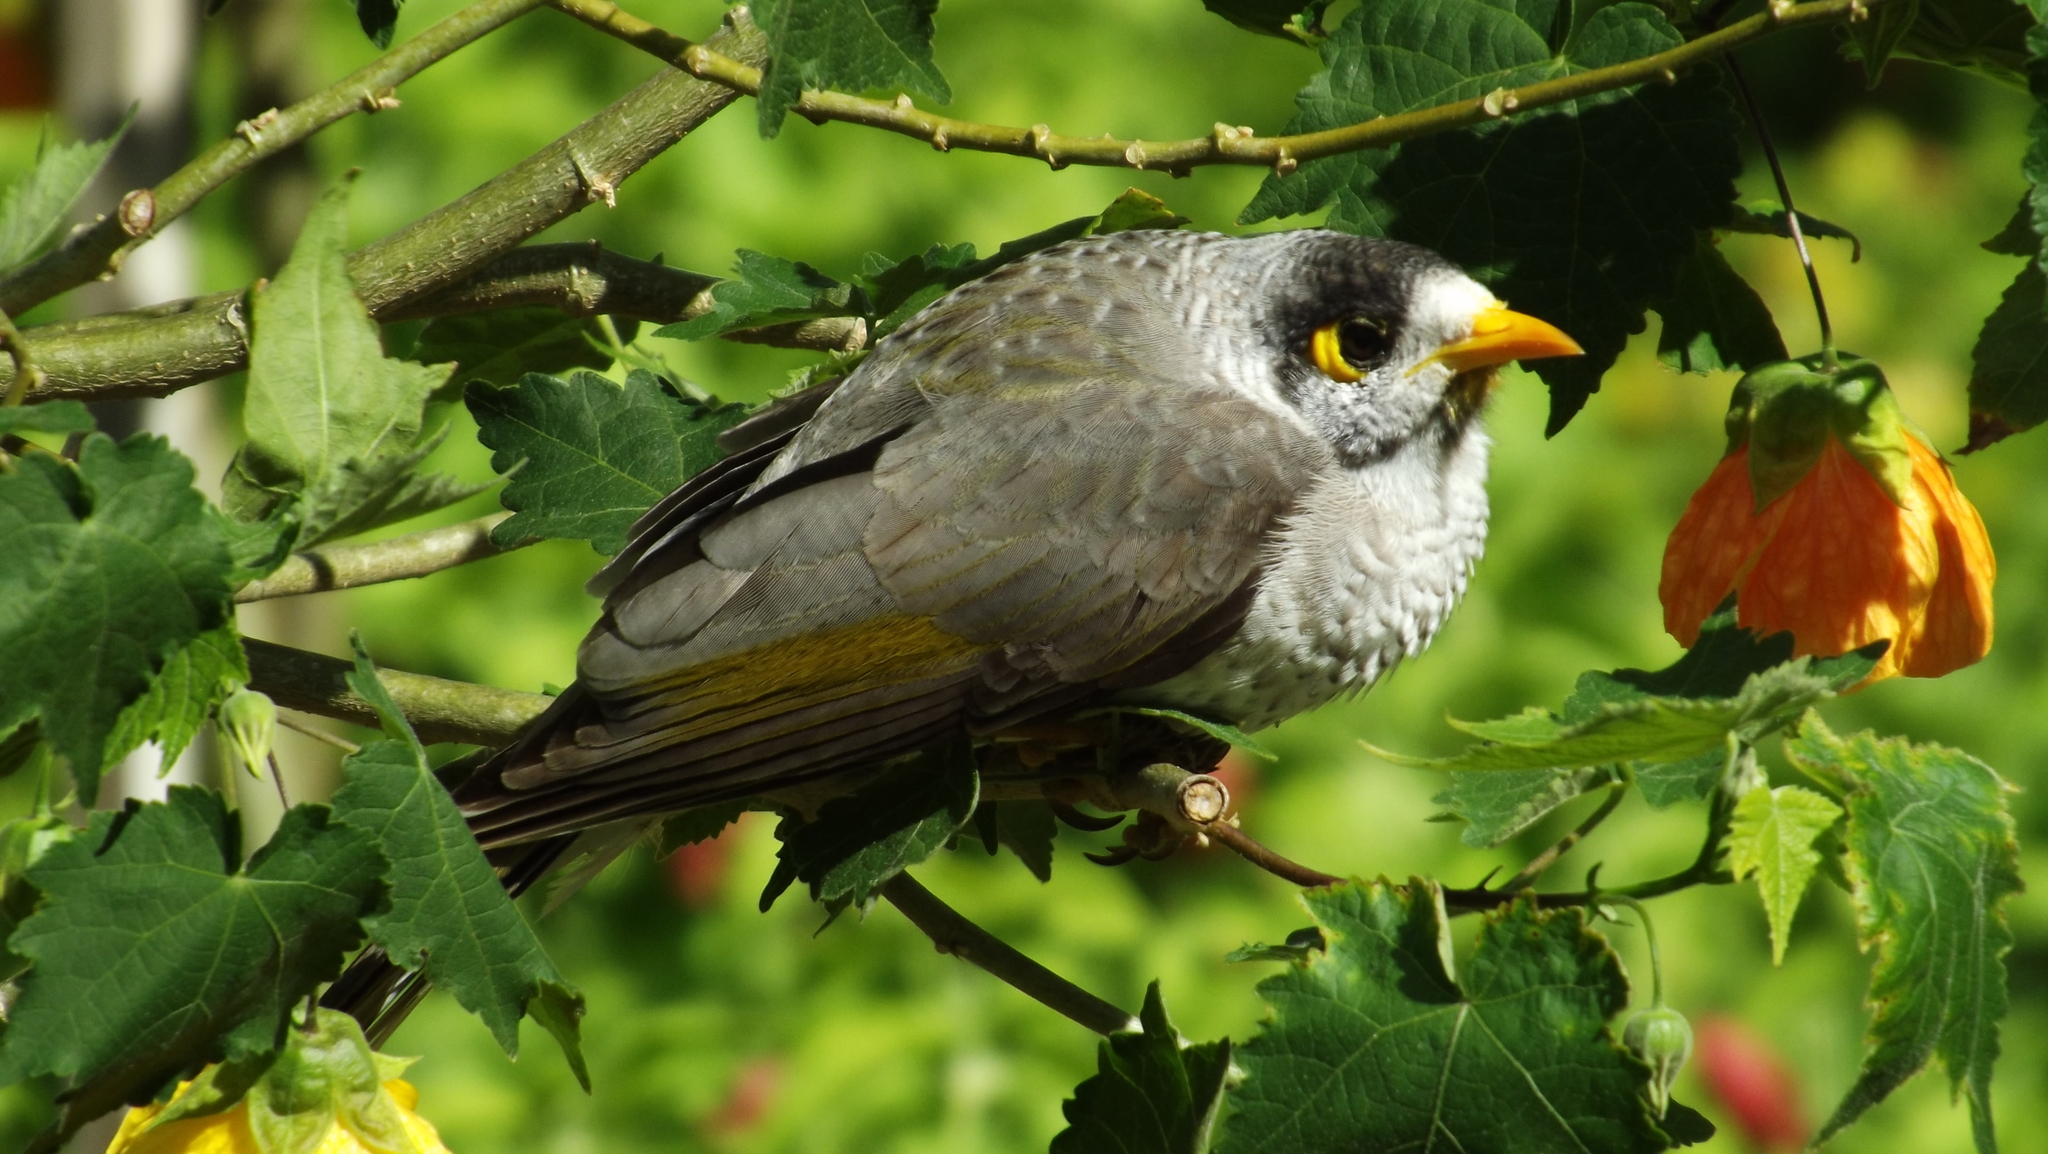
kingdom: Animalia
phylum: Chordata
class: Aves
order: Passeriformes
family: Meliphagidae
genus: Manorina
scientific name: Manorina melanocephala
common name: Noisy miner
